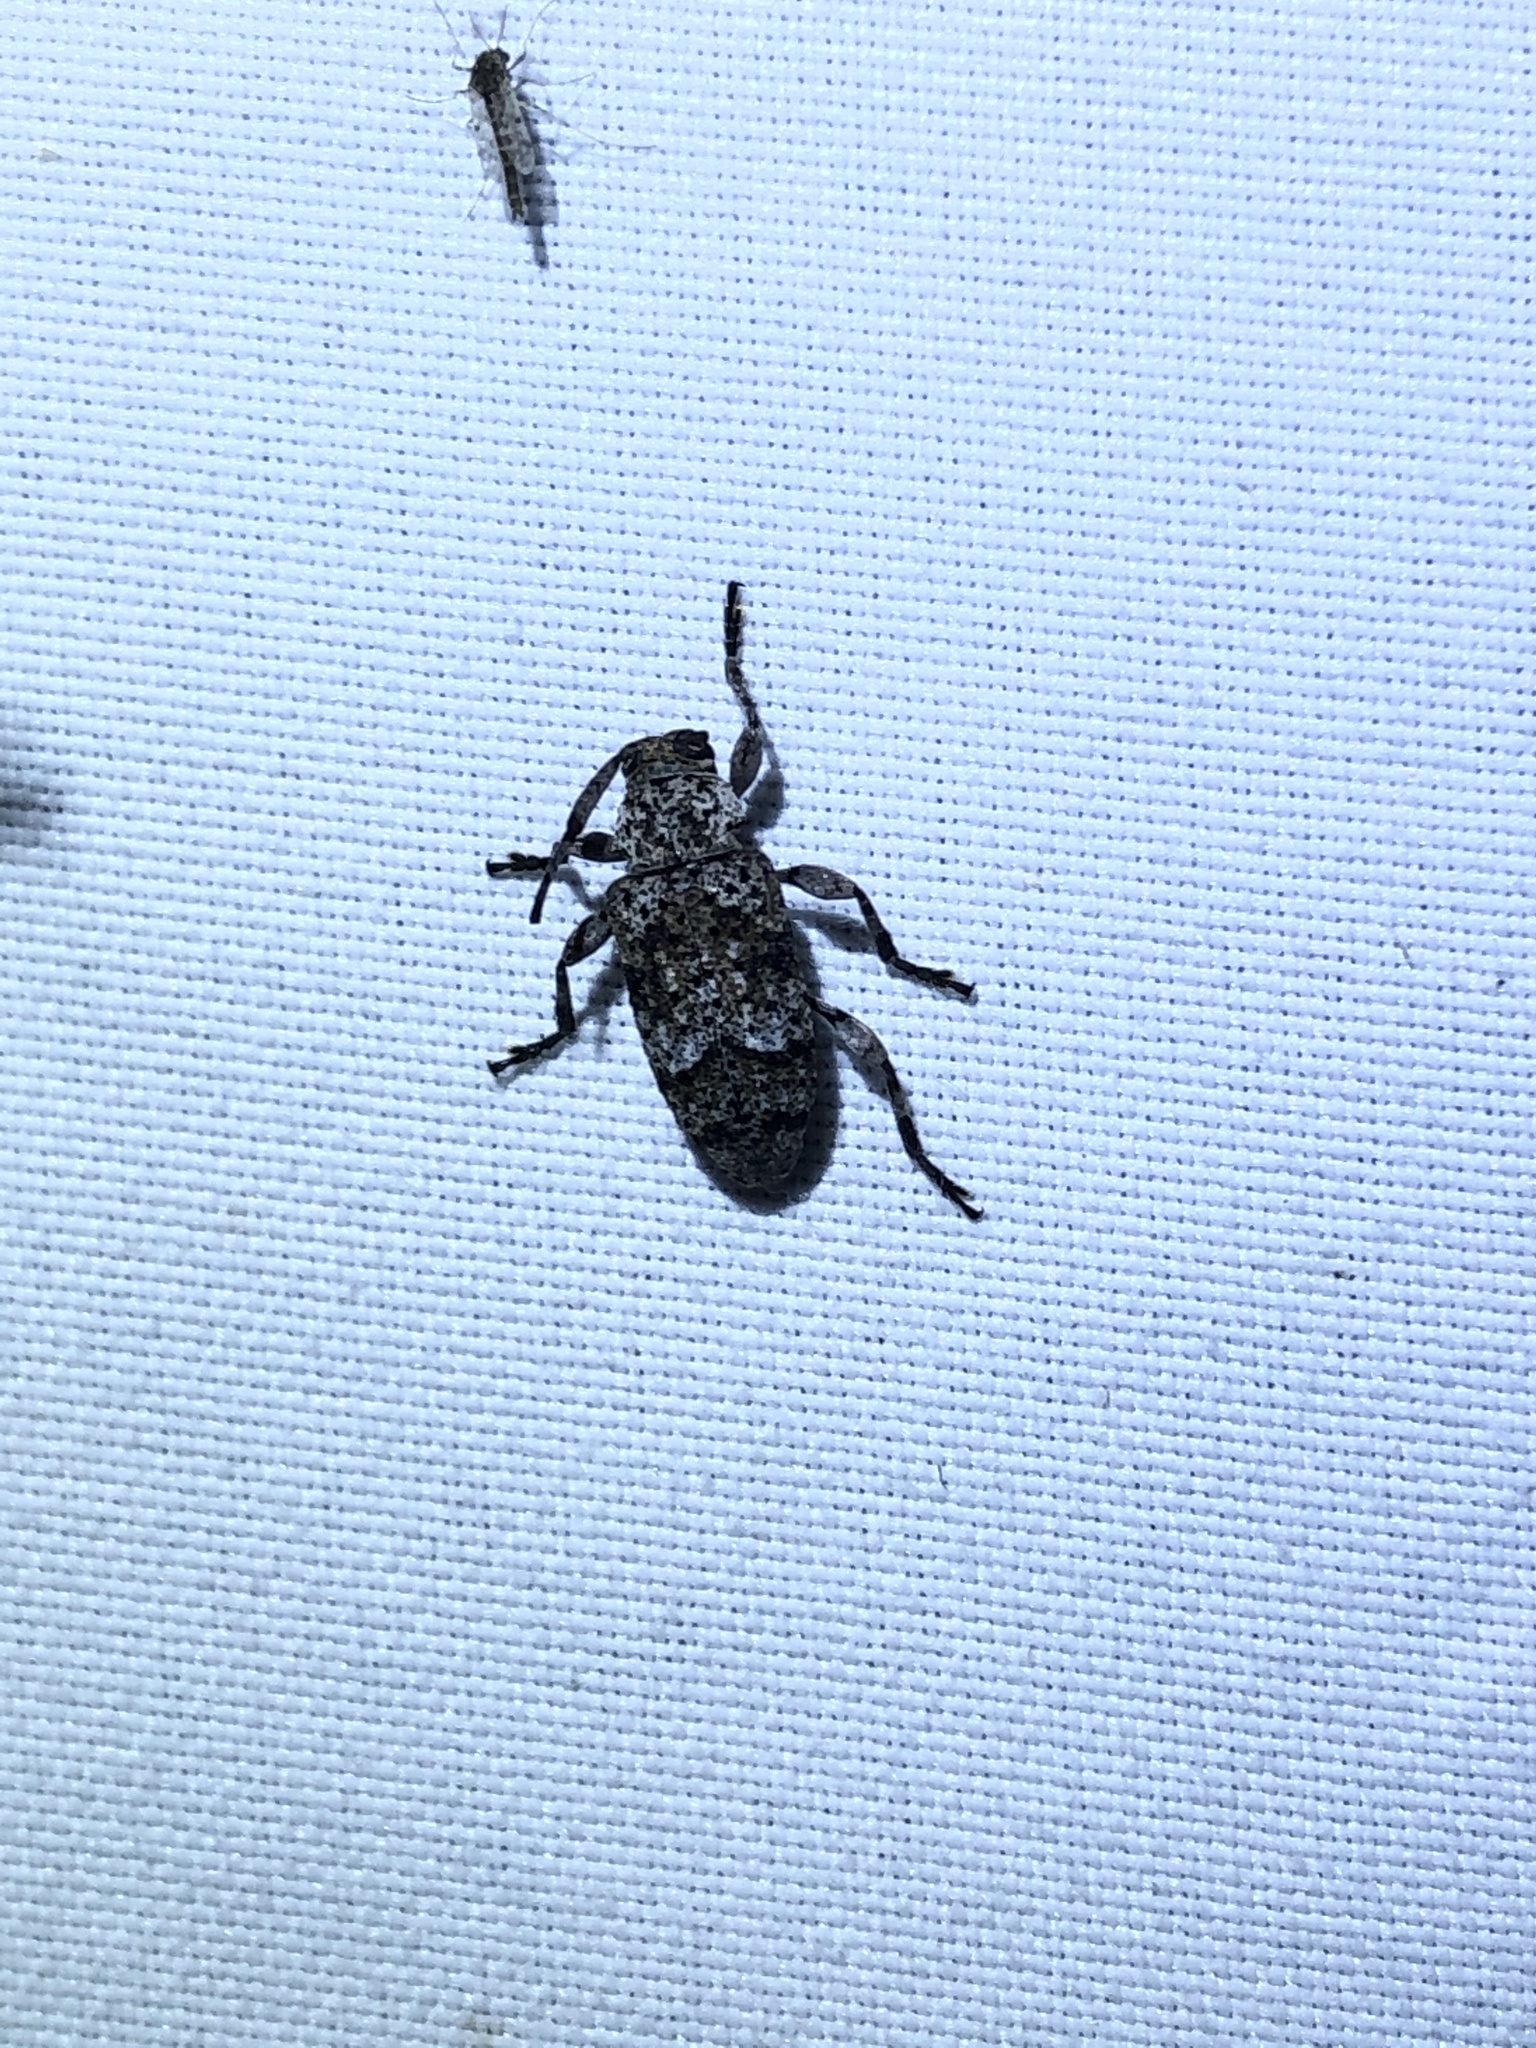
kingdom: Animalia
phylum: Arthropoda
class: Insecta
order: Coleoptera
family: Cerambycidae
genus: Sternidius
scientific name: Sternidius wiltii
